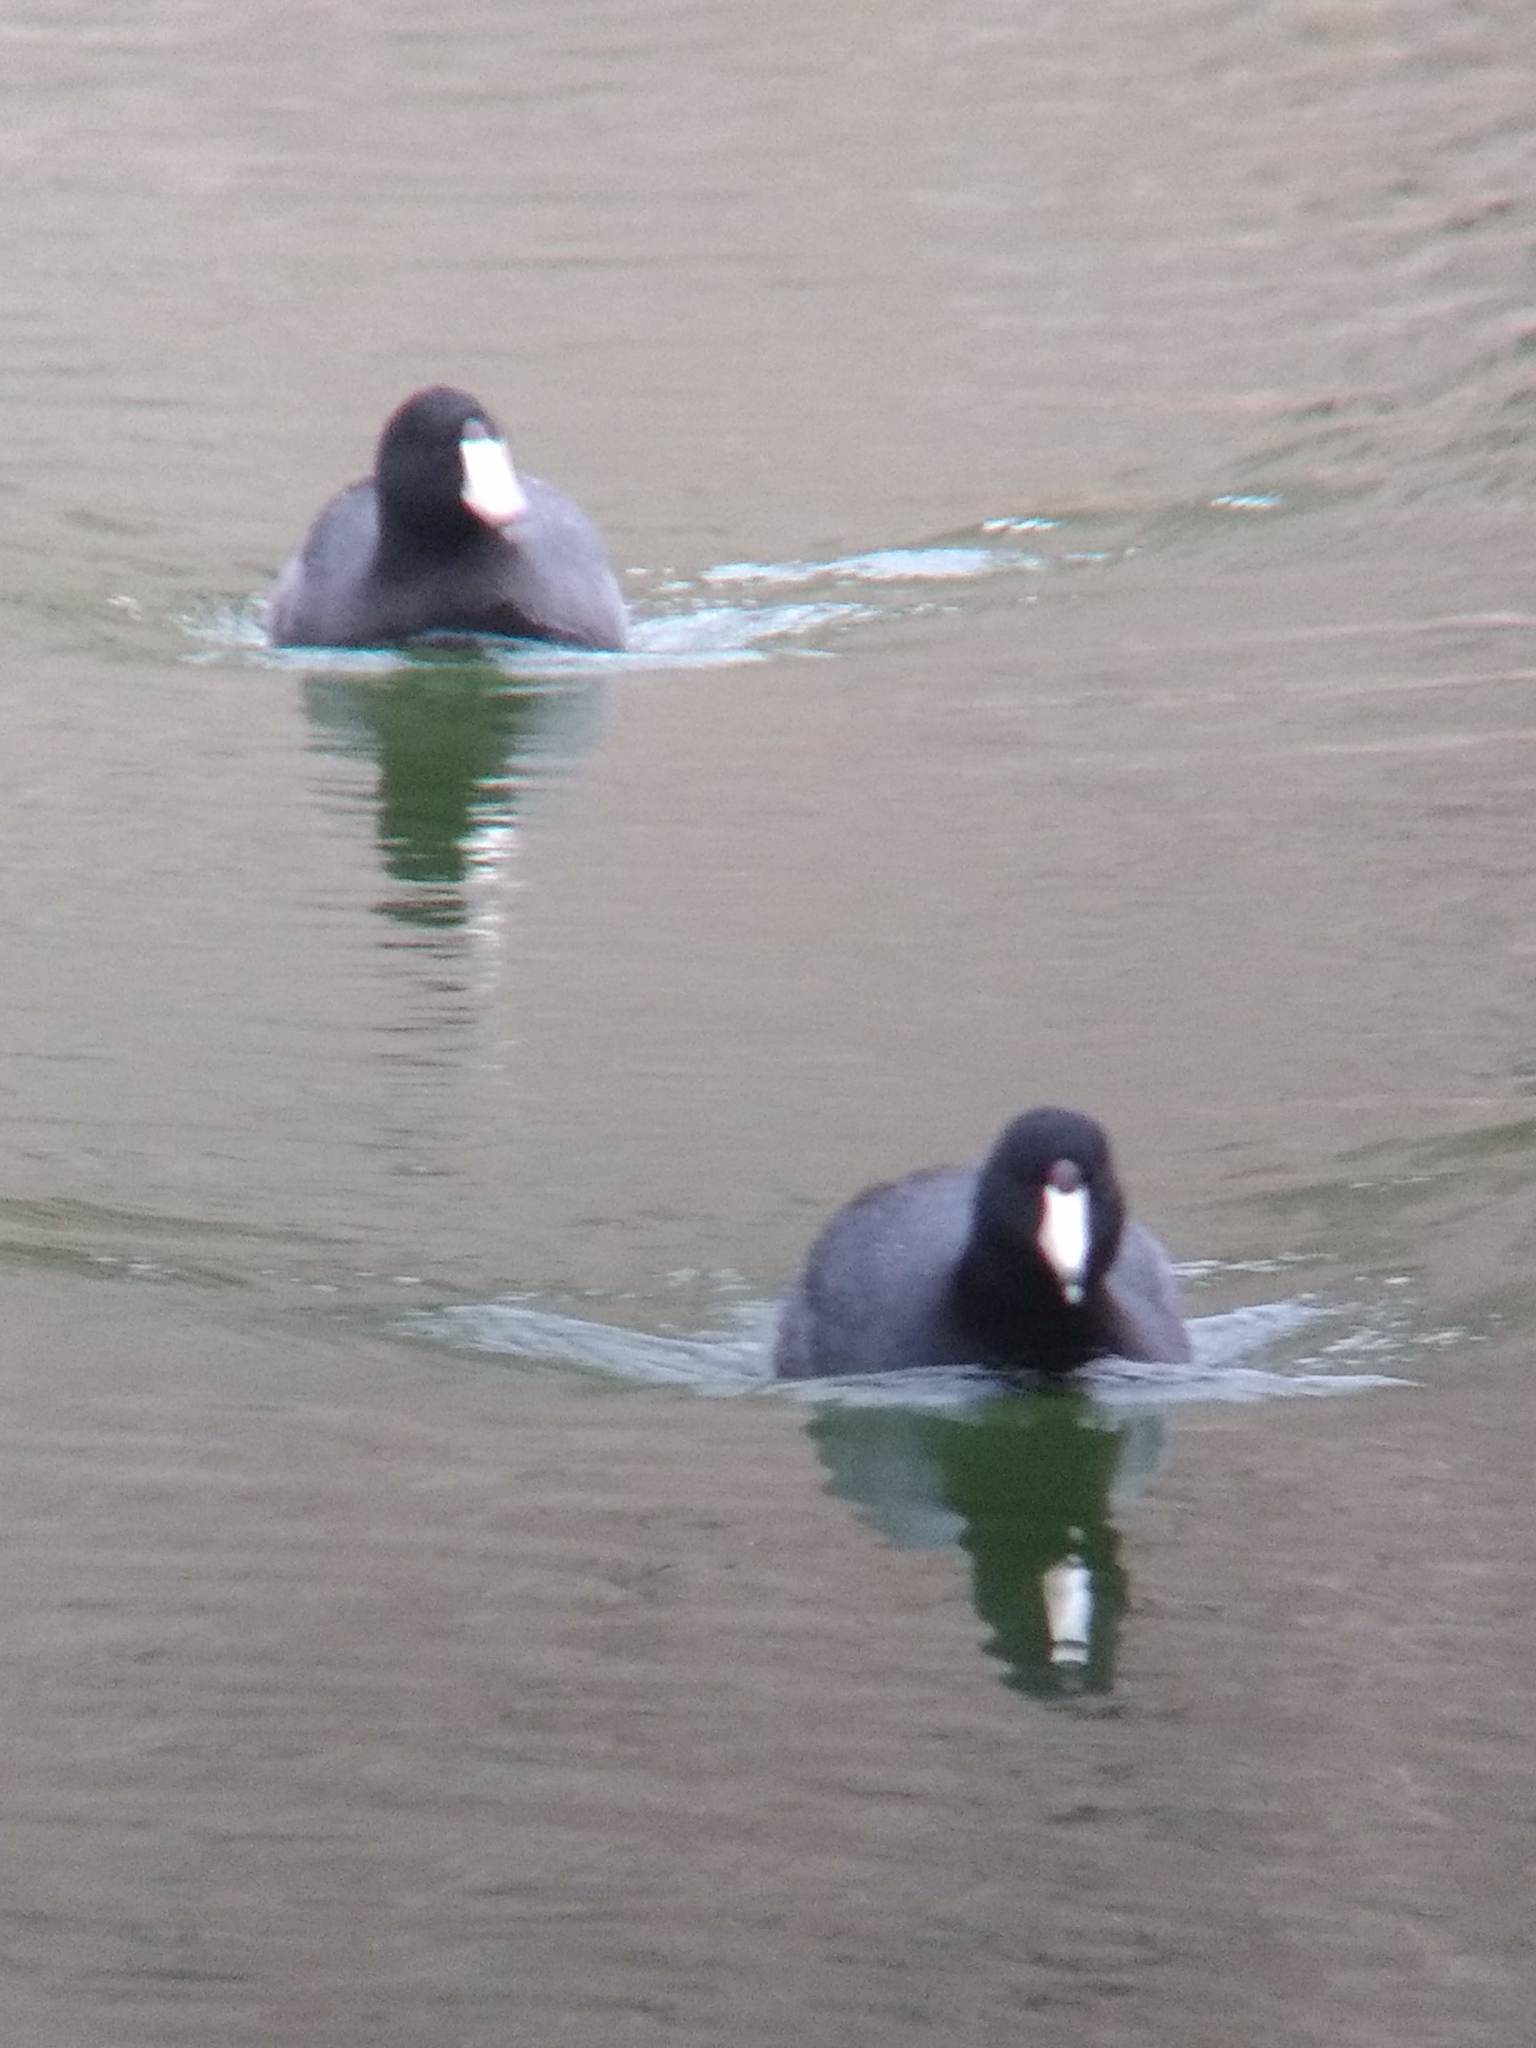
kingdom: Animalia
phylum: Chordata
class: Aves
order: Gruiformes
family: Rallidae
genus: Fulica
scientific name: Fulica americana
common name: American coot
